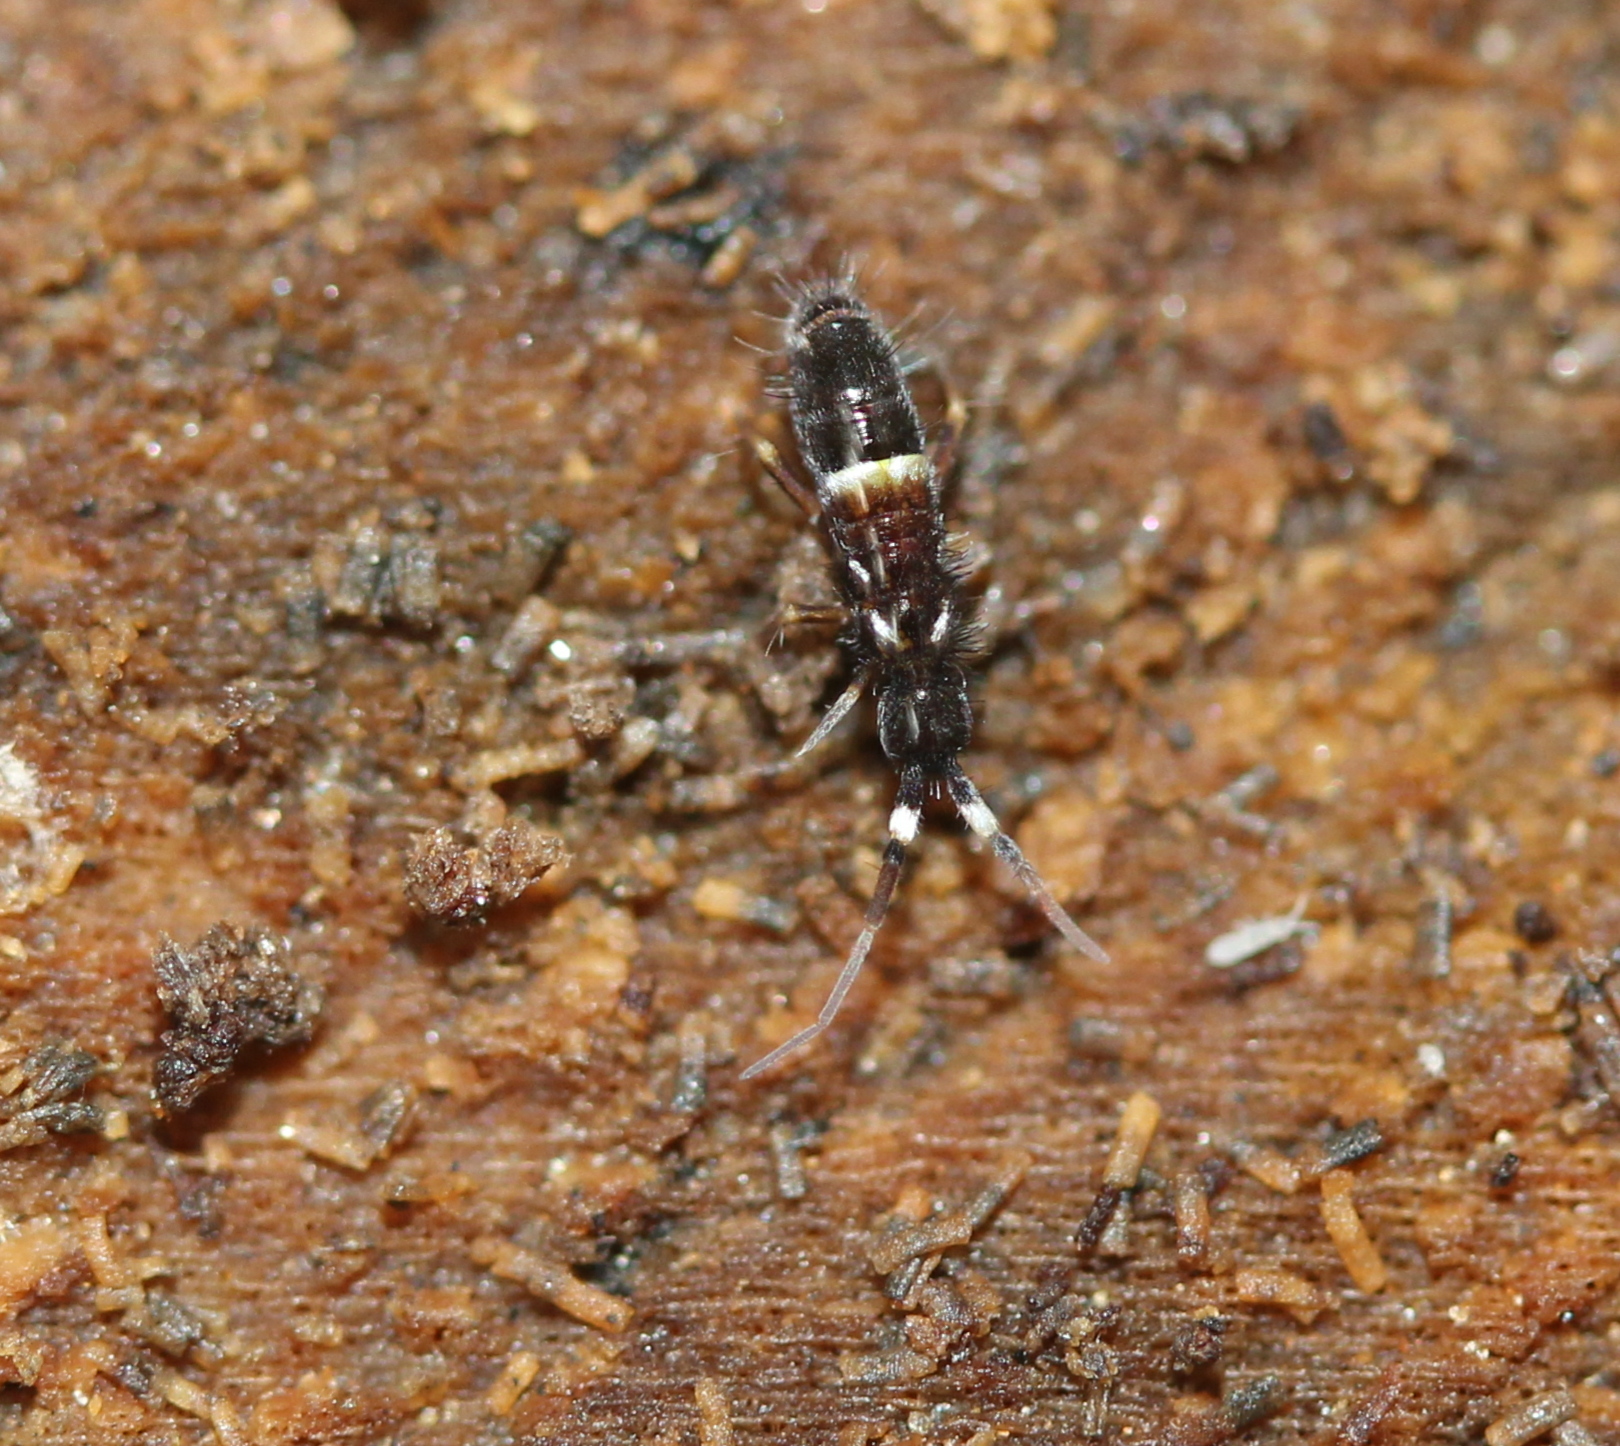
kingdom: Animalia
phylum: Arthropoda
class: Collembola
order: Entomobryomorpha
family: Orchesellidae
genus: Orchesella
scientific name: Orchesella cincta
